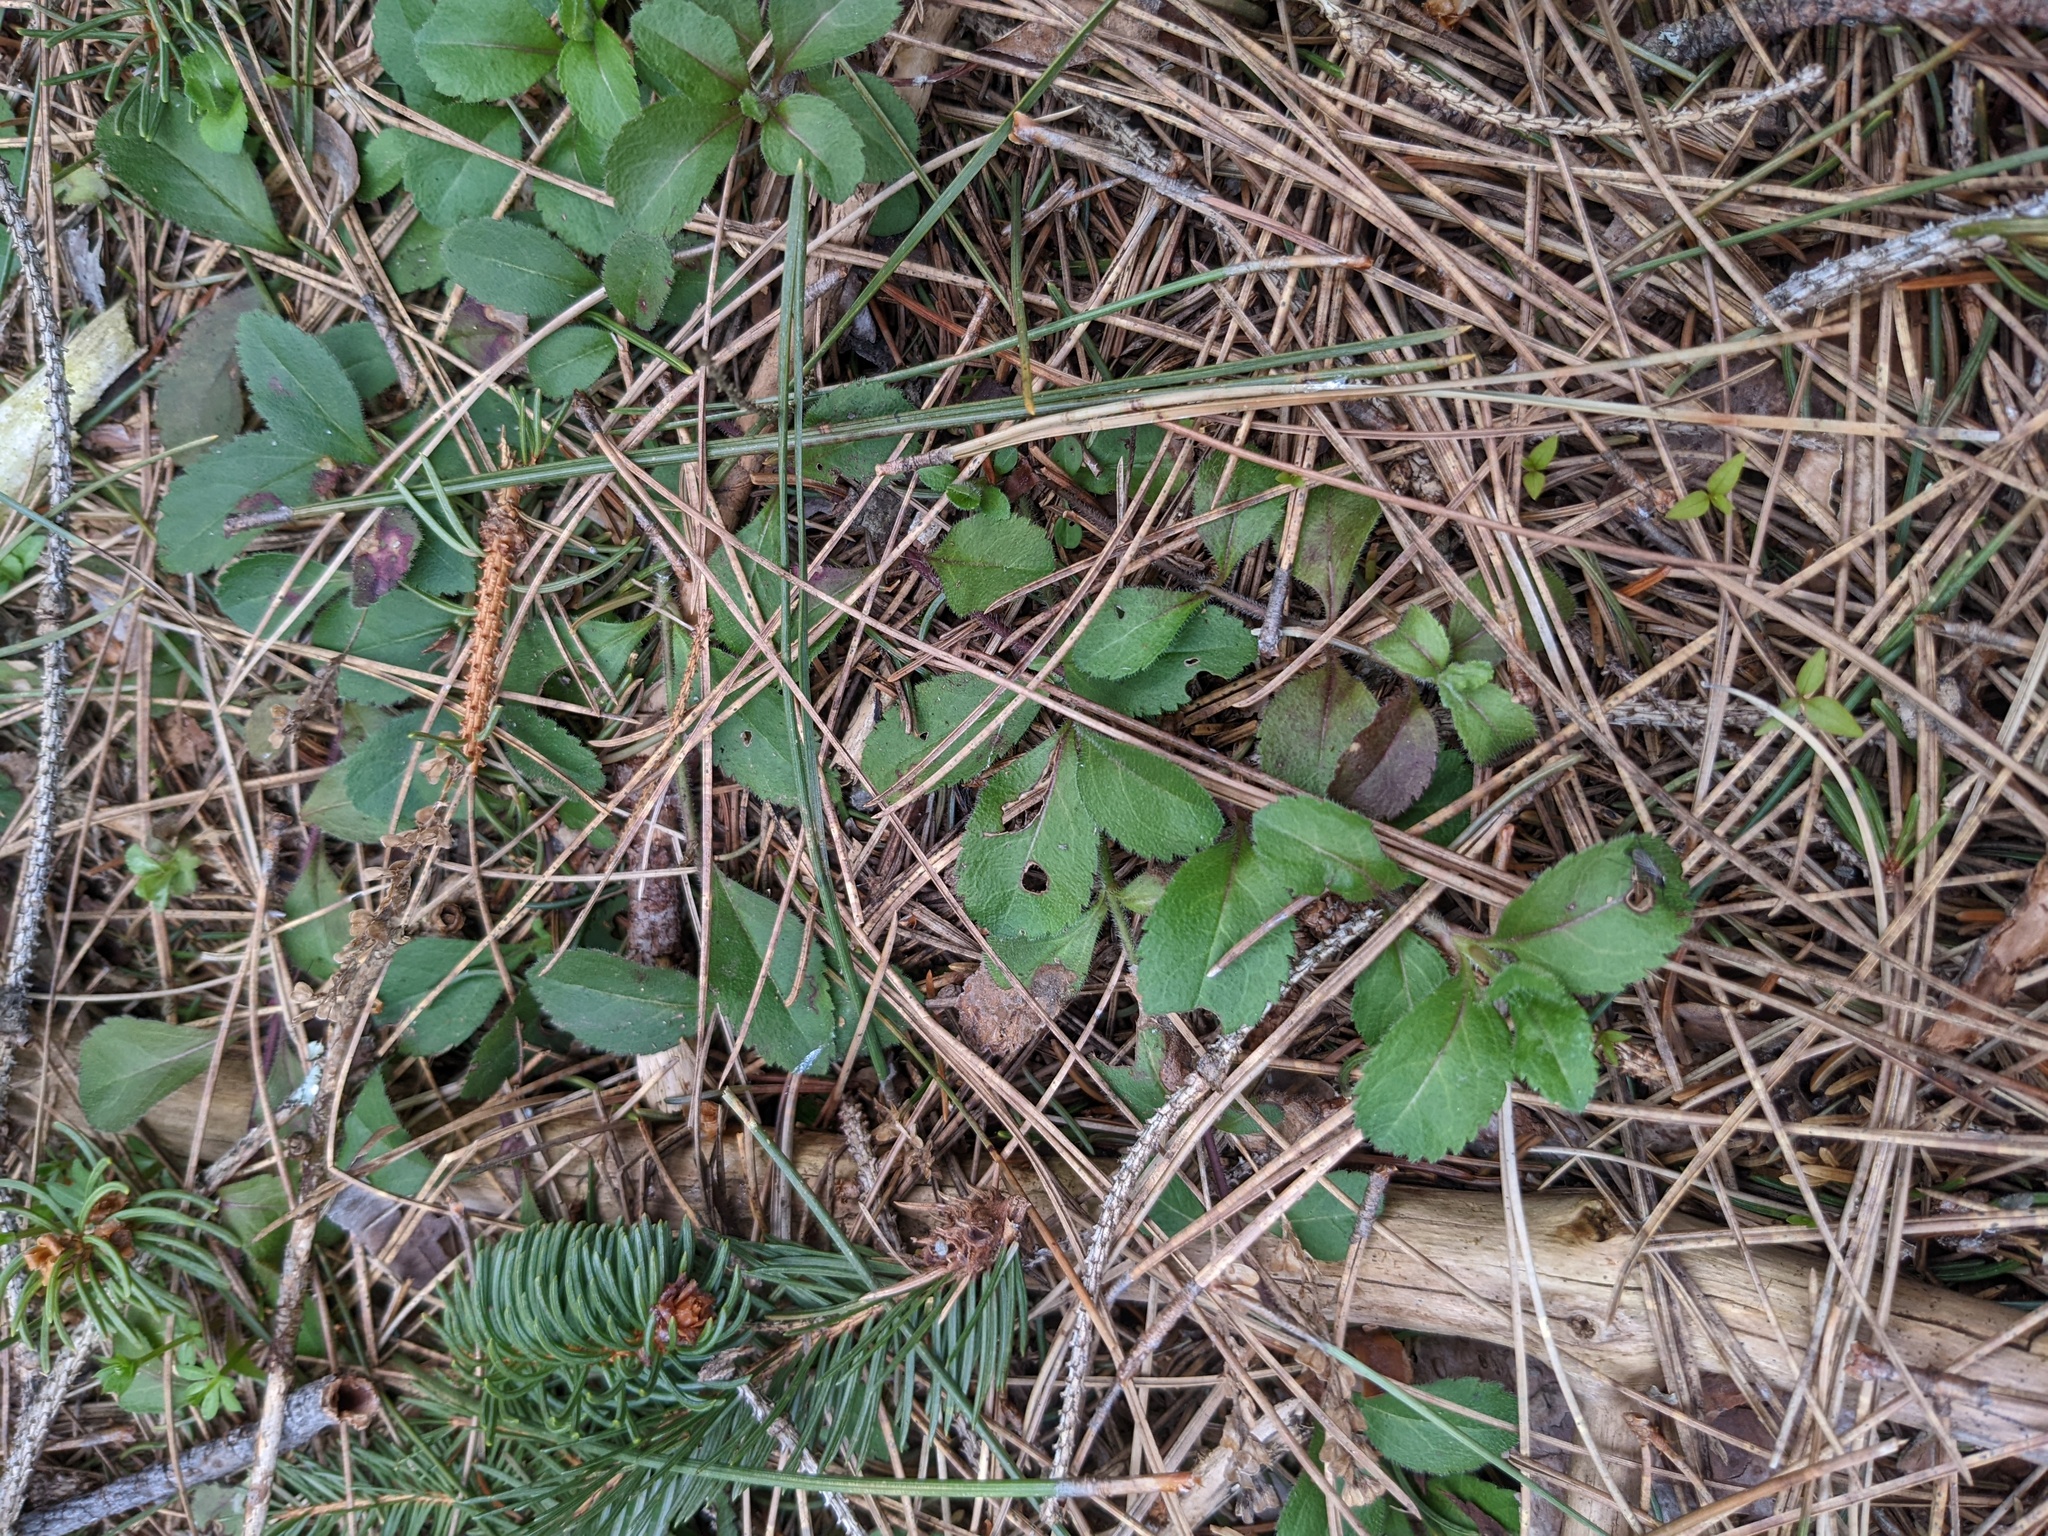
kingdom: Plantae
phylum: Tracheophyta
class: Magnoliopsida
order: Lamiales
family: Plantaginaceae
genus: Veronica
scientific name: Veronica officinalis
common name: Common speedwell
